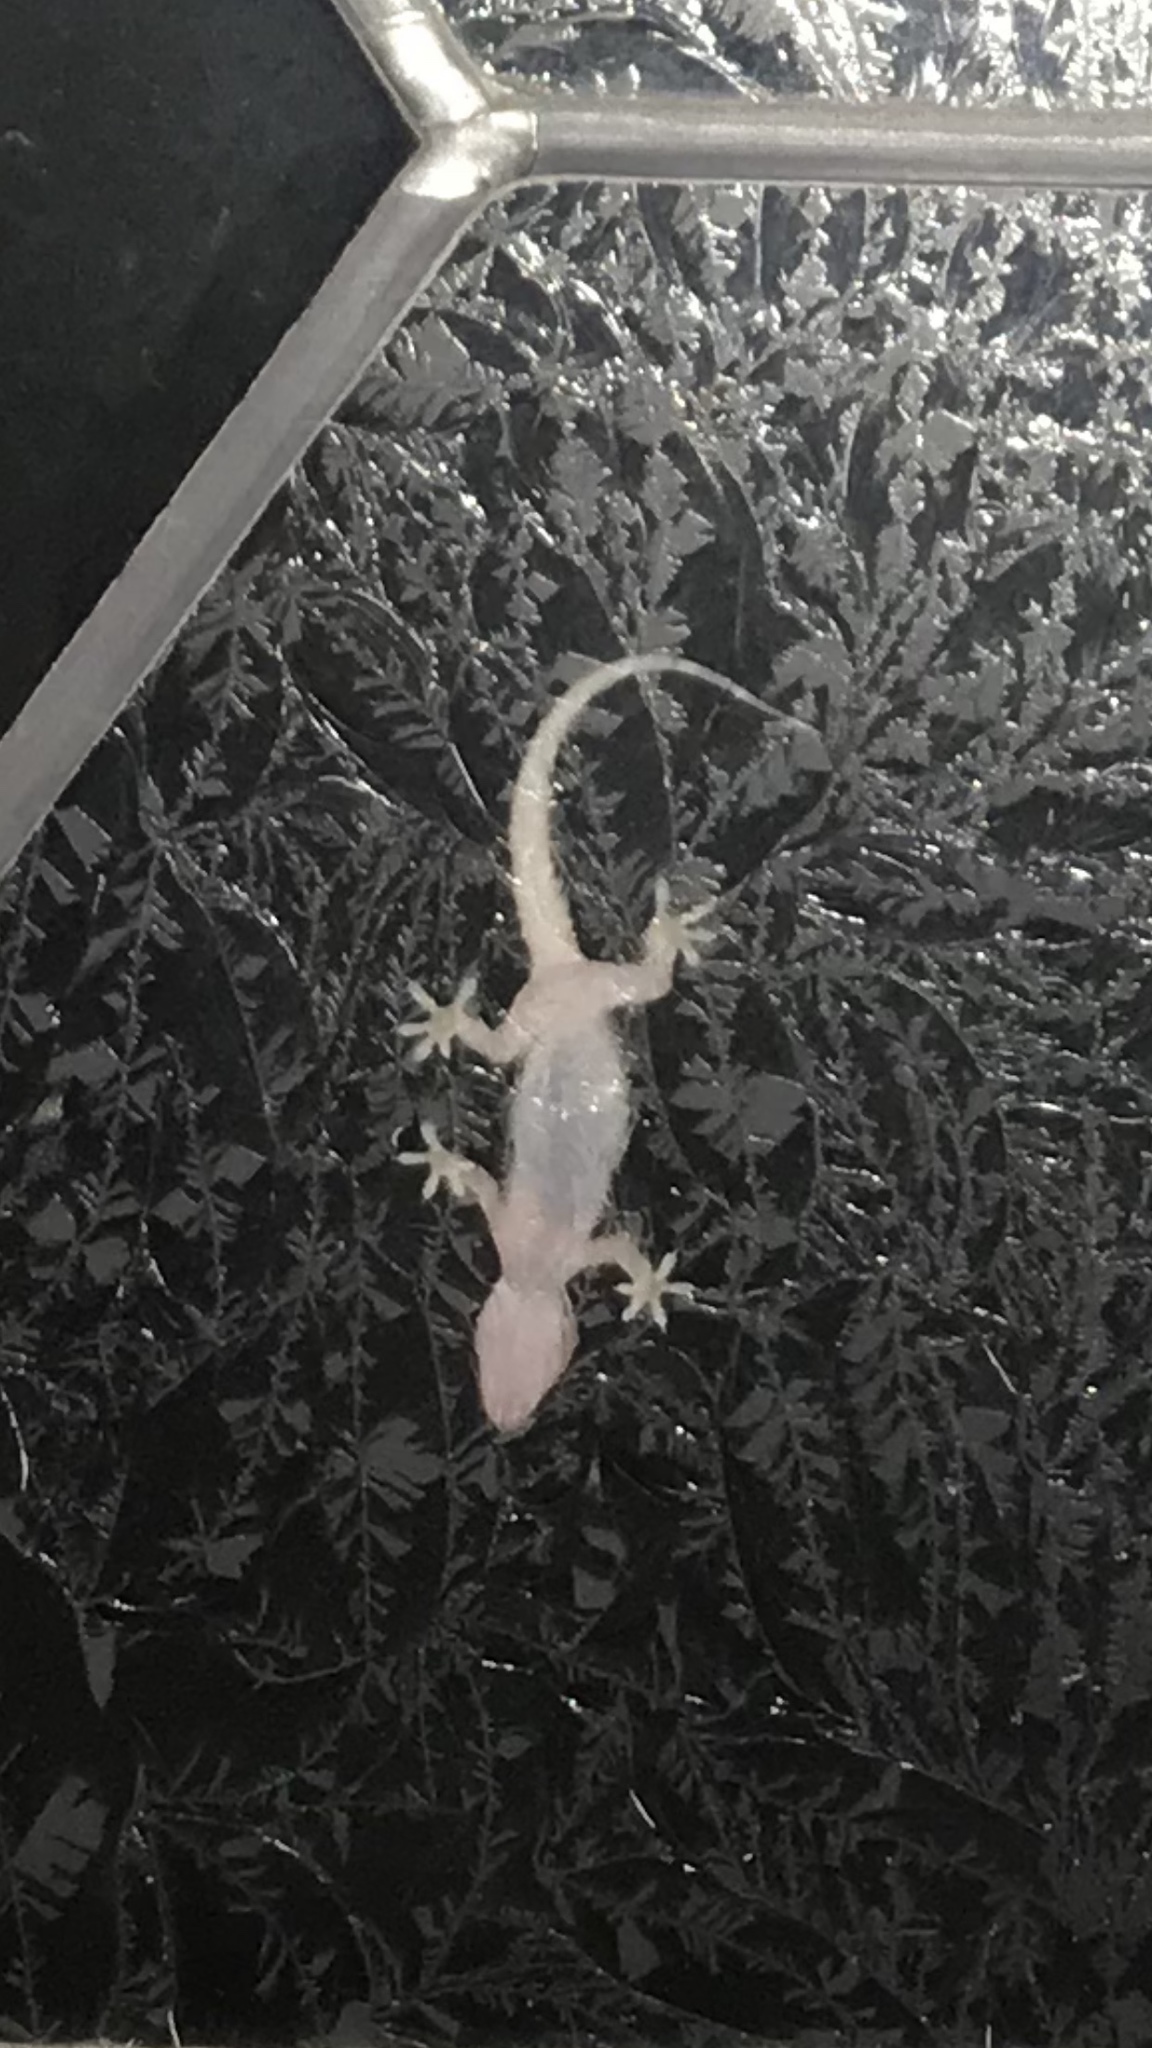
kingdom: Animalia
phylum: Chordata
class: Squamata
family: Gekkonidae
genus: Hemidactylus
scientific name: Hemidactylus turcicus
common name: Turkish gecko
